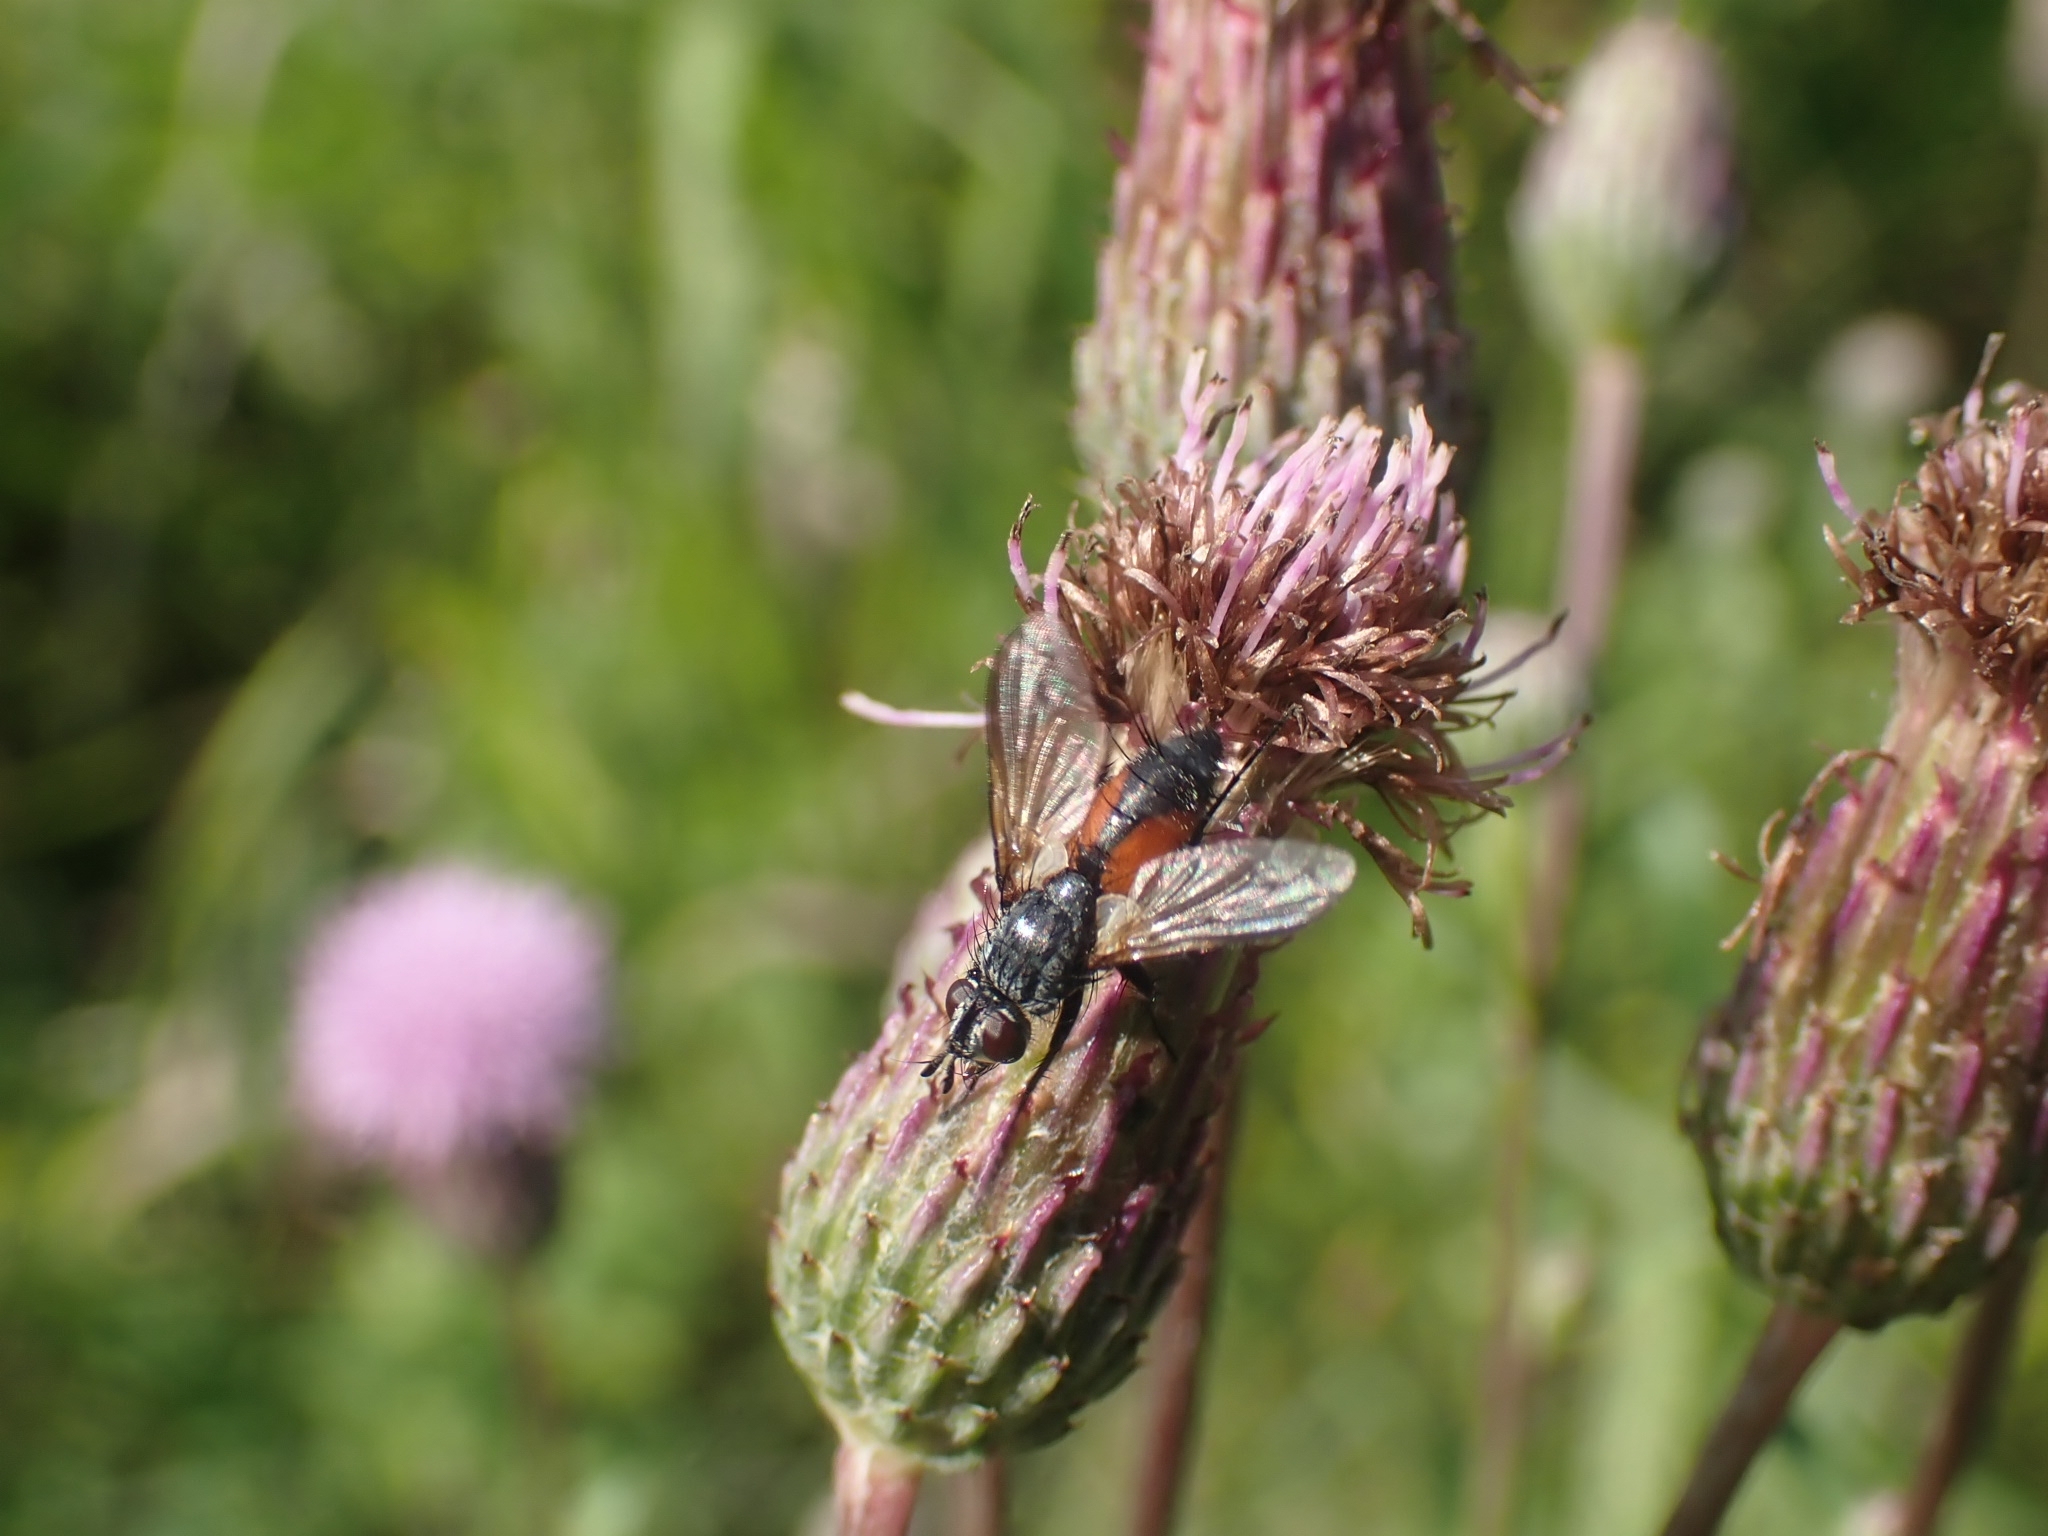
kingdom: Animalia
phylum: Arthropoda
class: Insecta
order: Diptera
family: Tachinidae
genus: Eriothrix
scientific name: Eriothrix rufomaculatus
